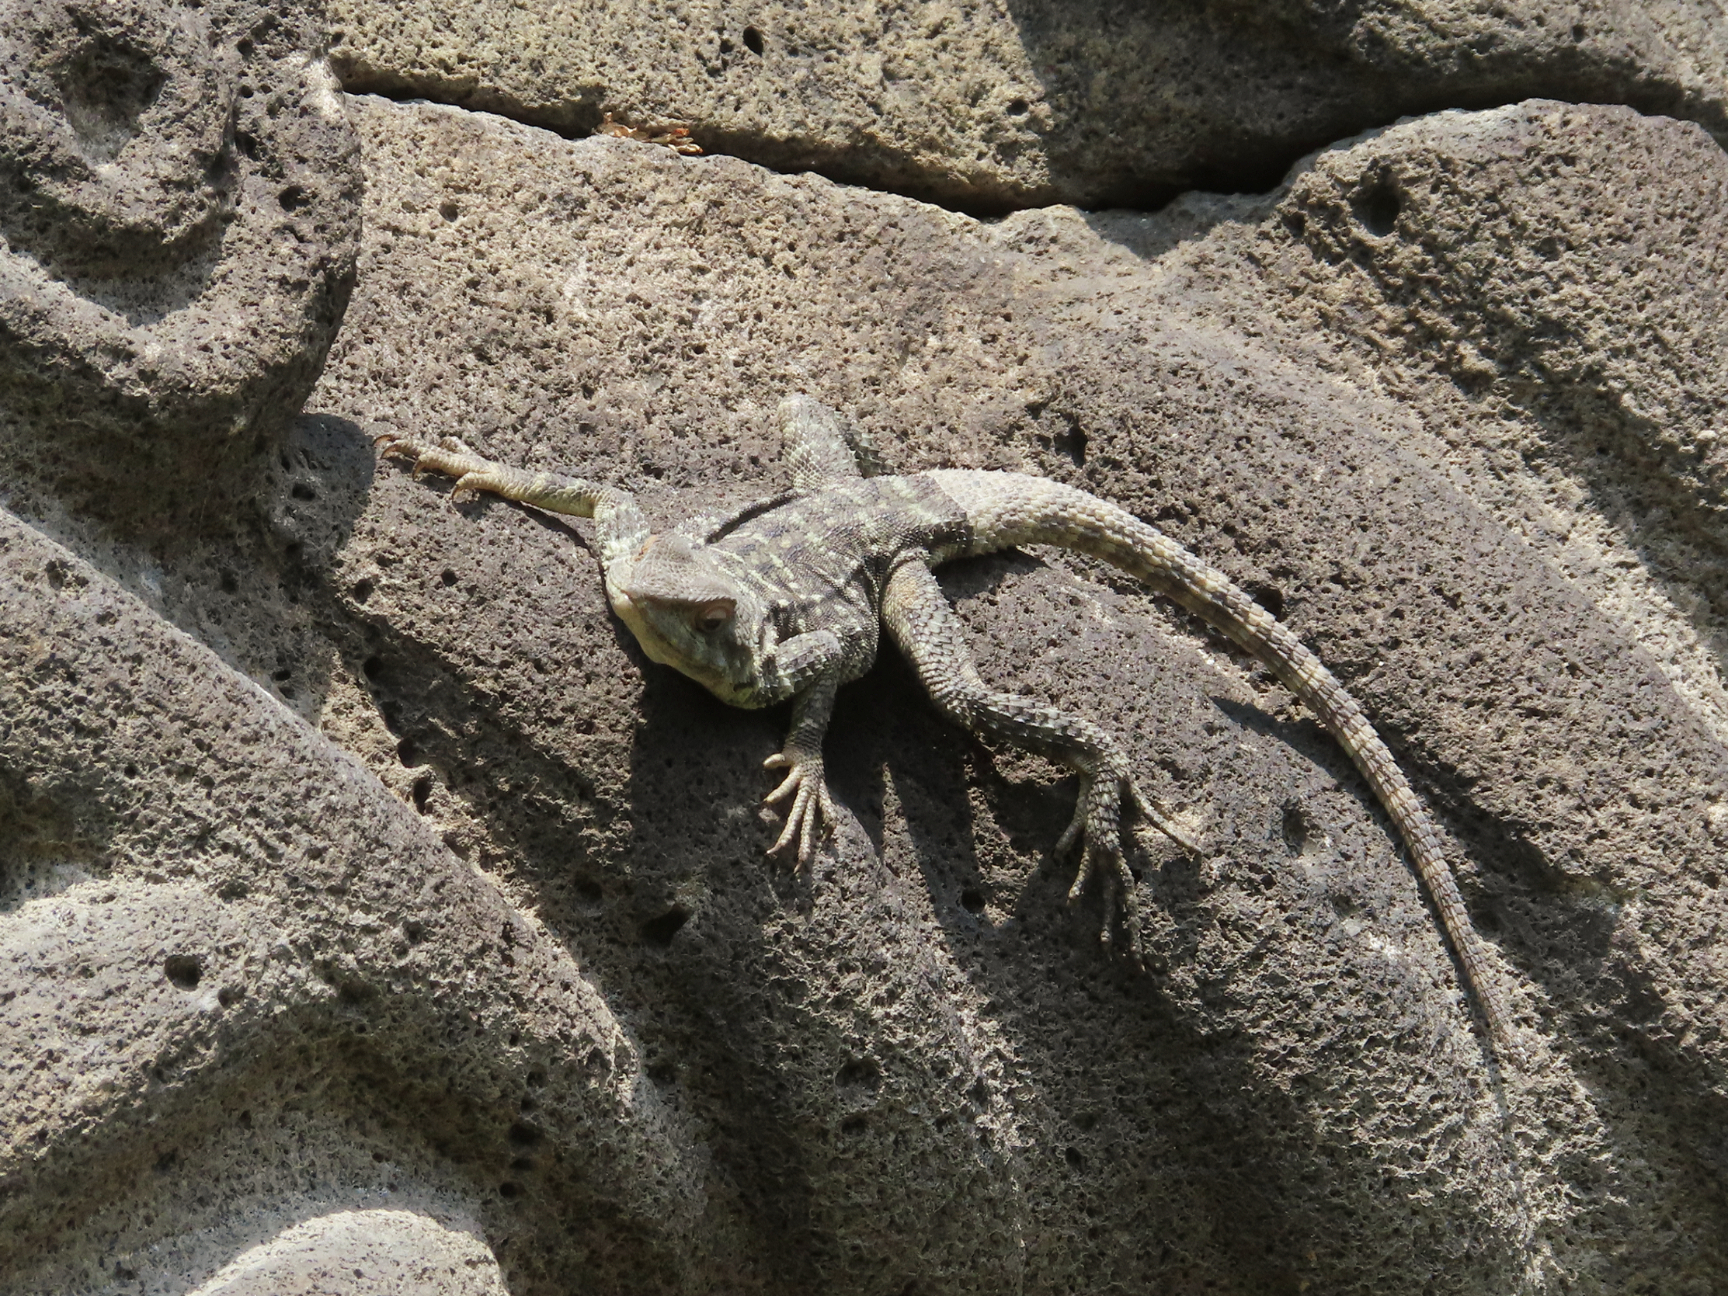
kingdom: Animalia
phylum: Chordata
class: Squamata
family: Agamidae
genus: Paralaudakia
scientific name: Paralaudakia caucasia
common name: Caucasian agama
